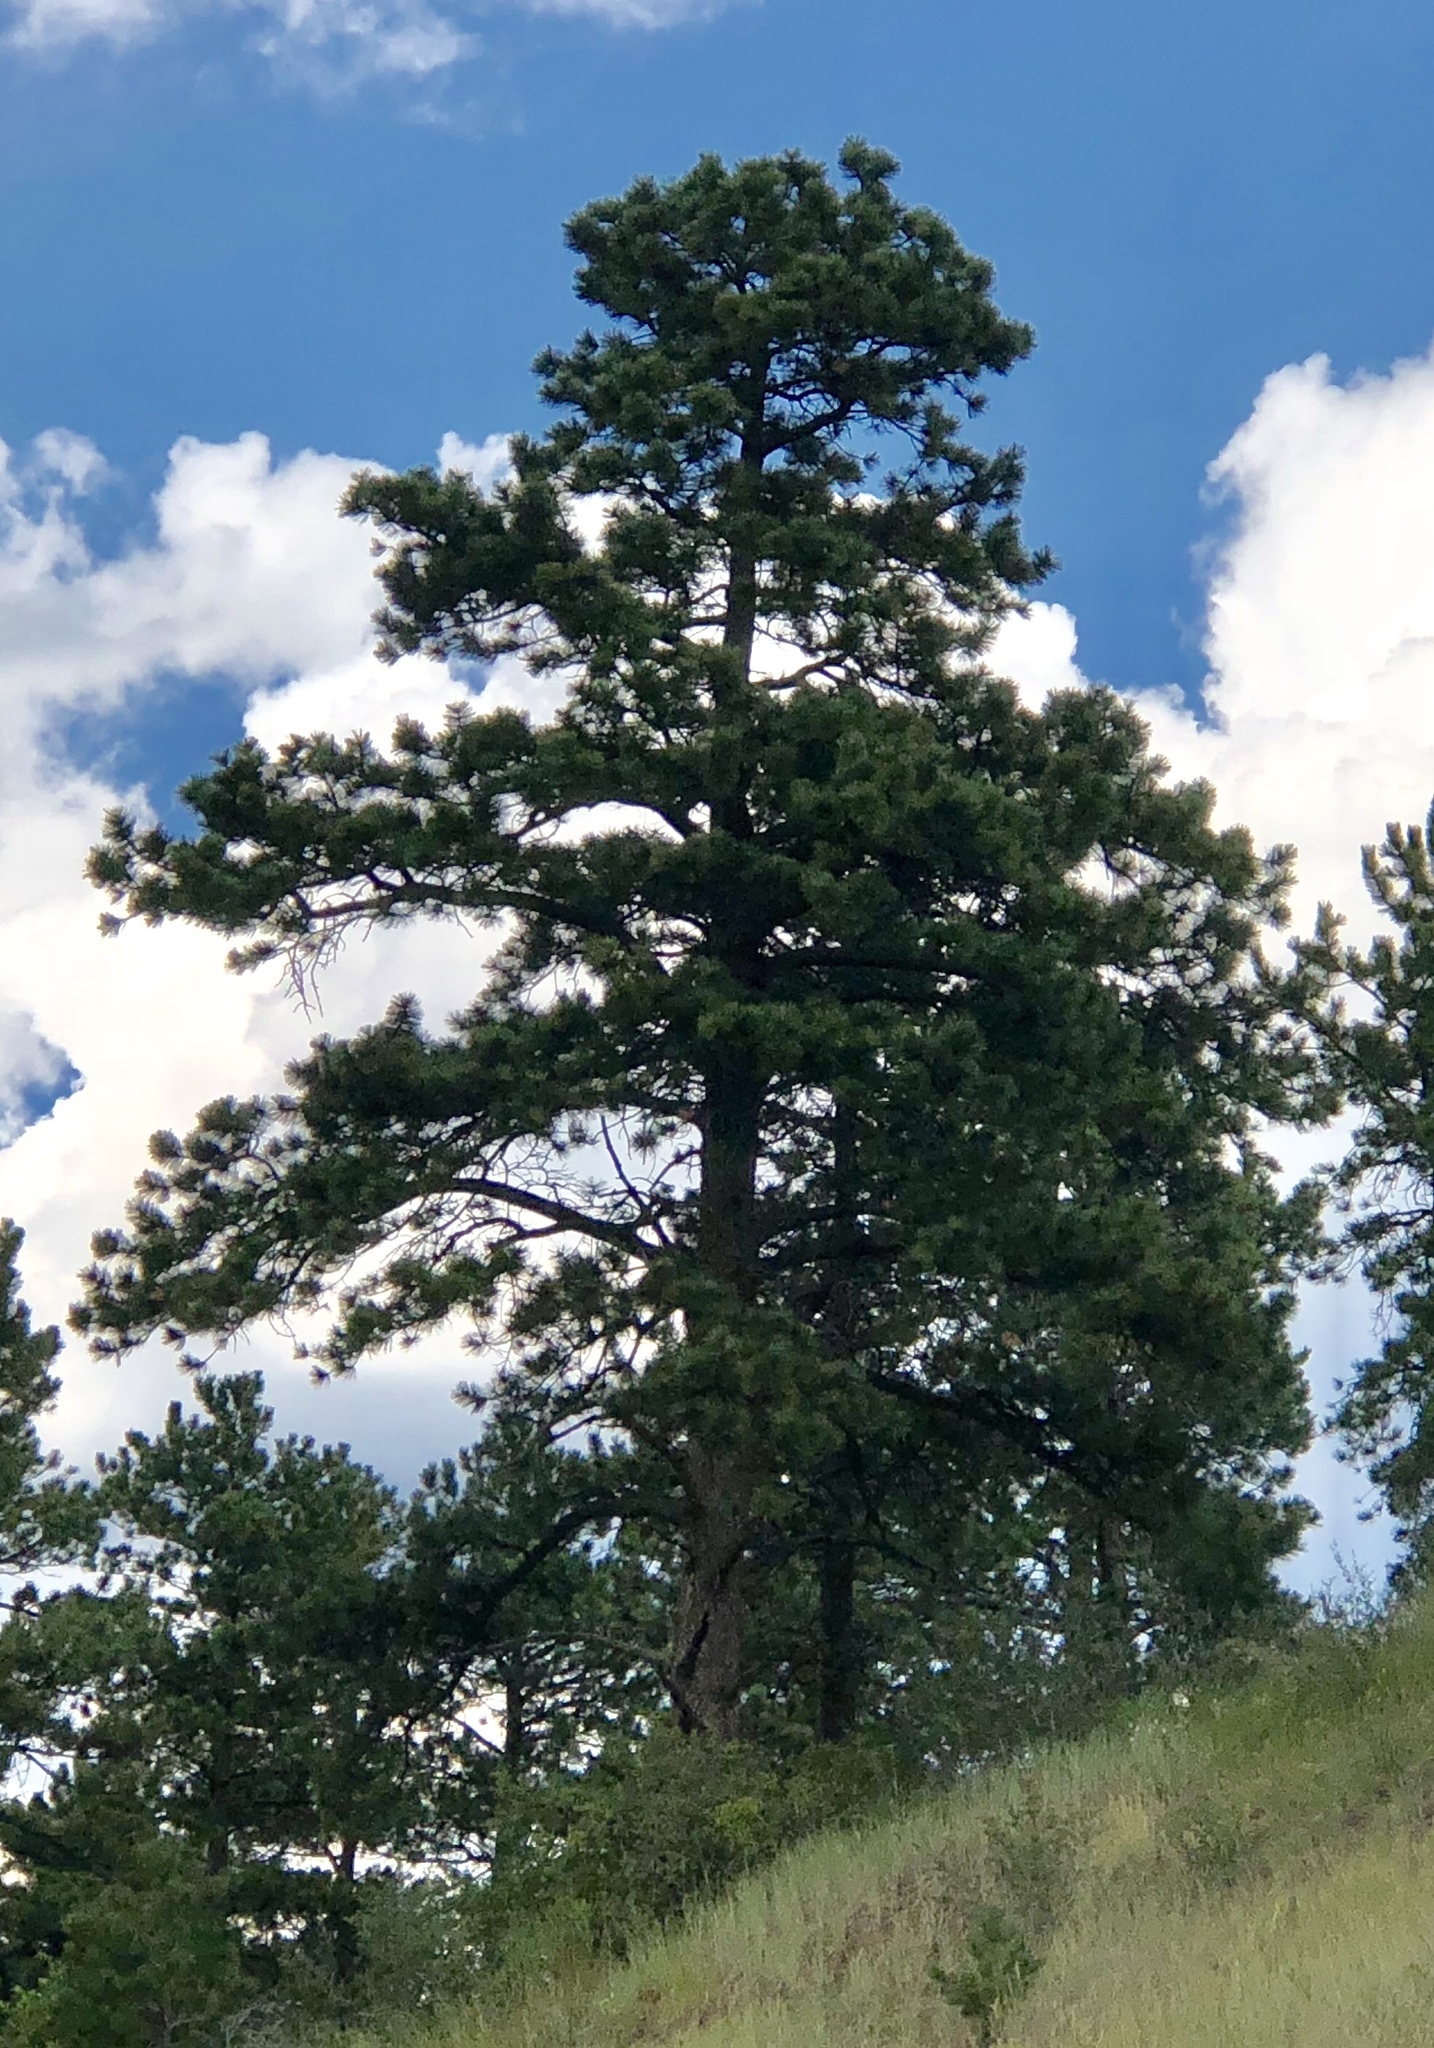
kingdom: Plantae
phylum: Tracheophyta
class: Pinopsida
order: Pinales
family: Pinaceae
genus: Pinus
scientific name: Pinus ponderosa
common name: Western yellow-pine
